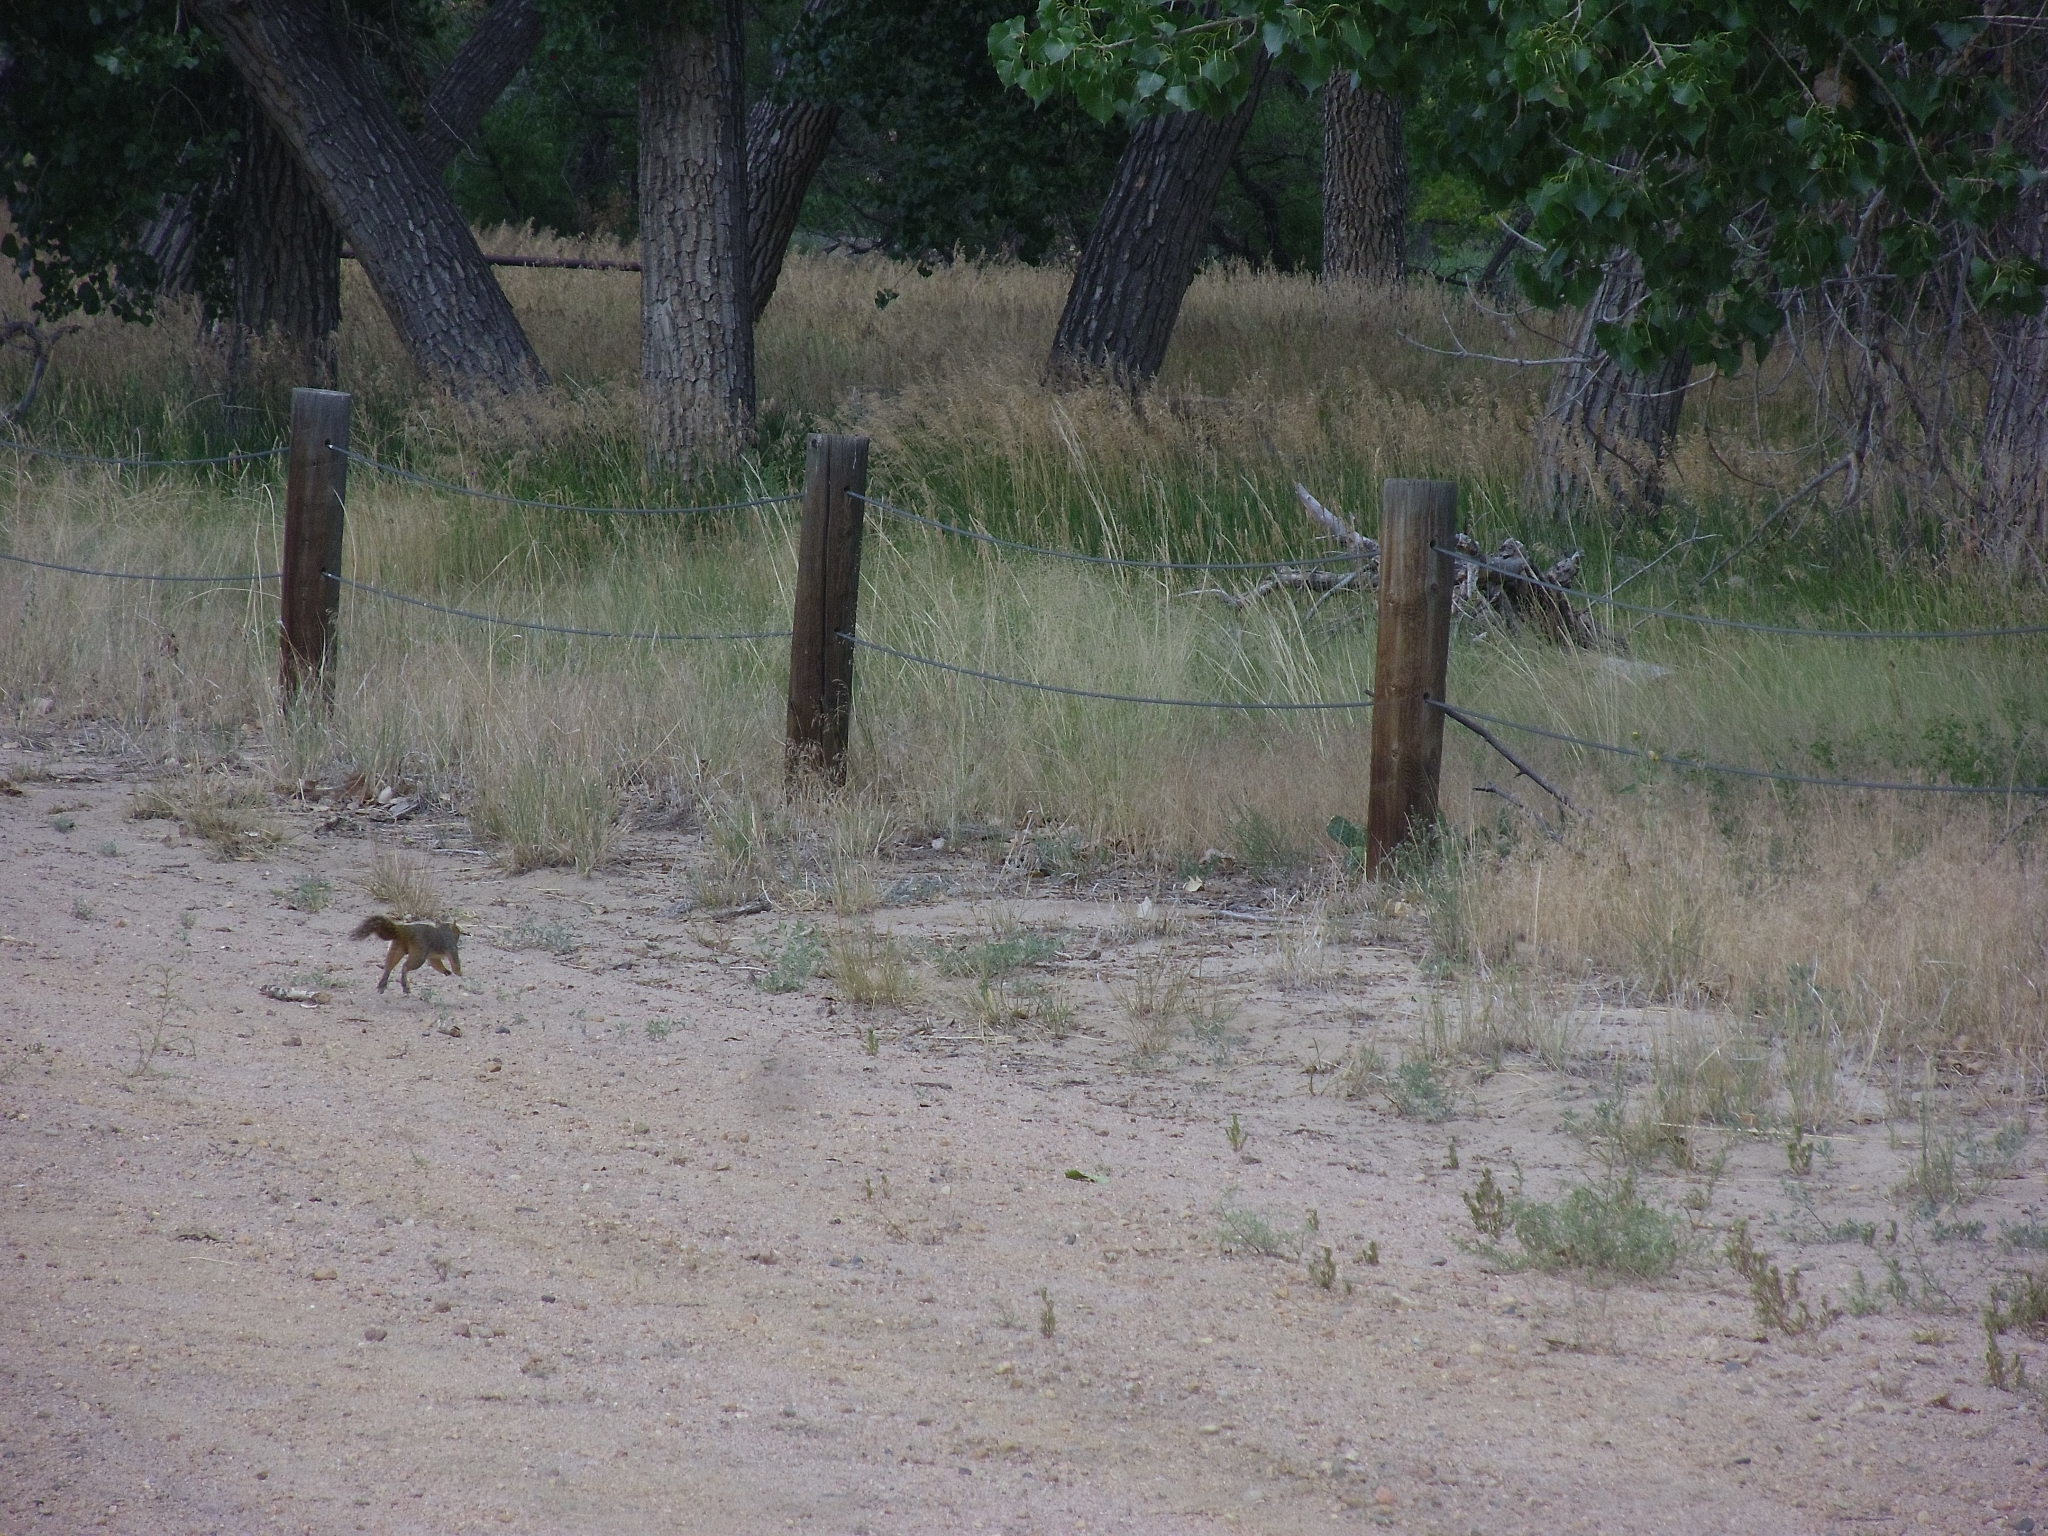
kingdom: Animalia
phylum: Chordata
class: Mammalia
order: Rodentia
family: Sciuridae
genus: Sciurus
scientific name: Sciurus niger
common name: Fox squirrel
